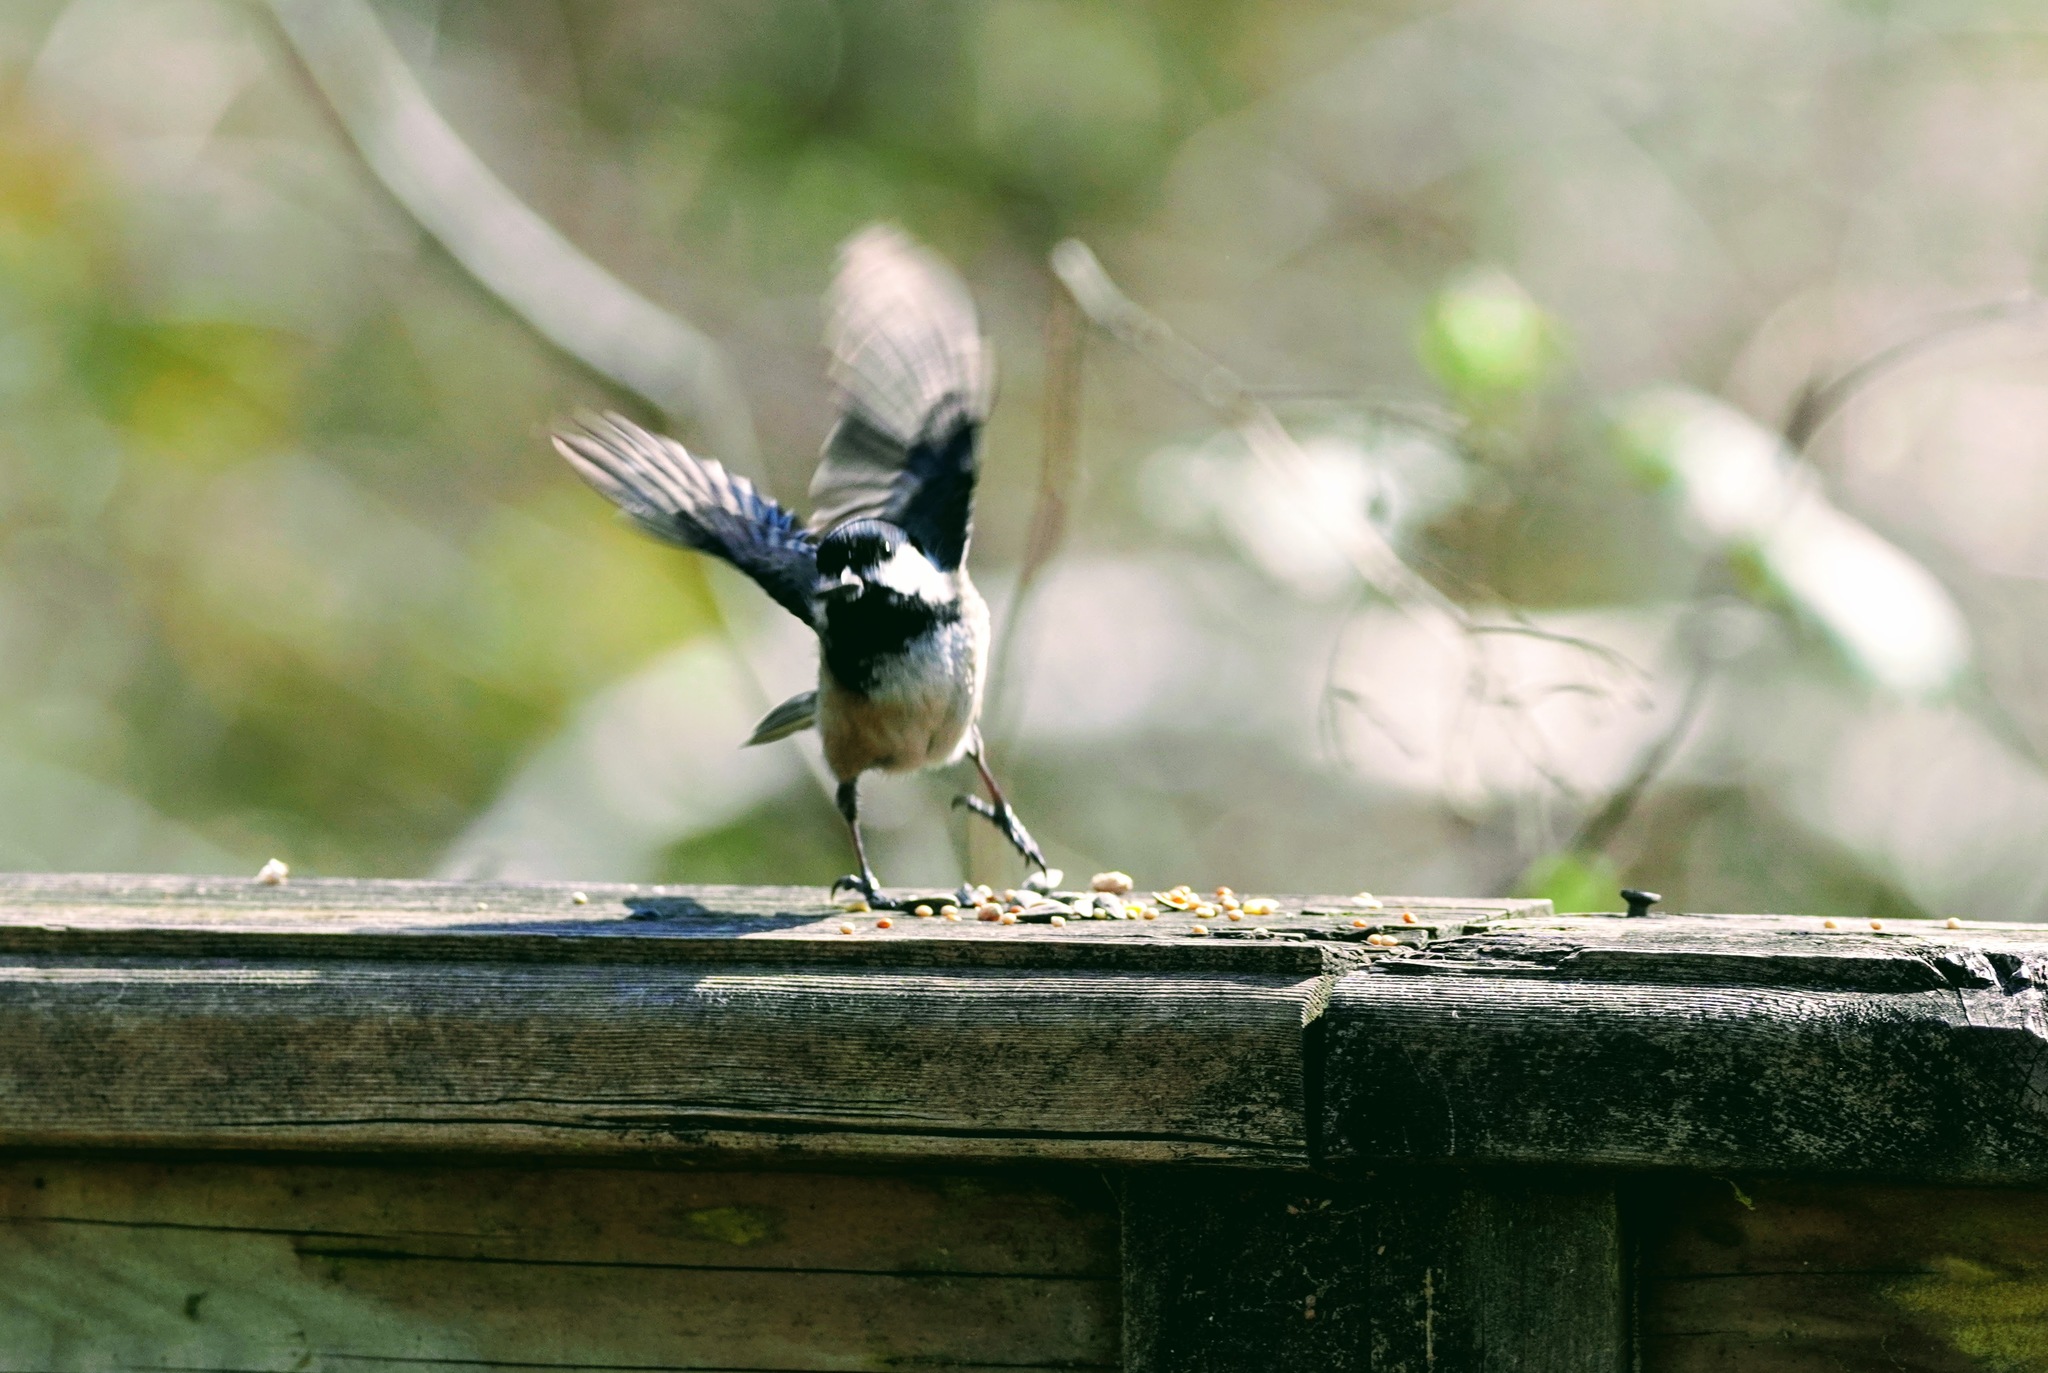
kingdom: Animalia
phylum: Chordata
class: Aves
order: Passeriformes
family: Paridae
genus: Poecile
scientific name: Poecile atricapillus
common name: Black-capped chickadee
